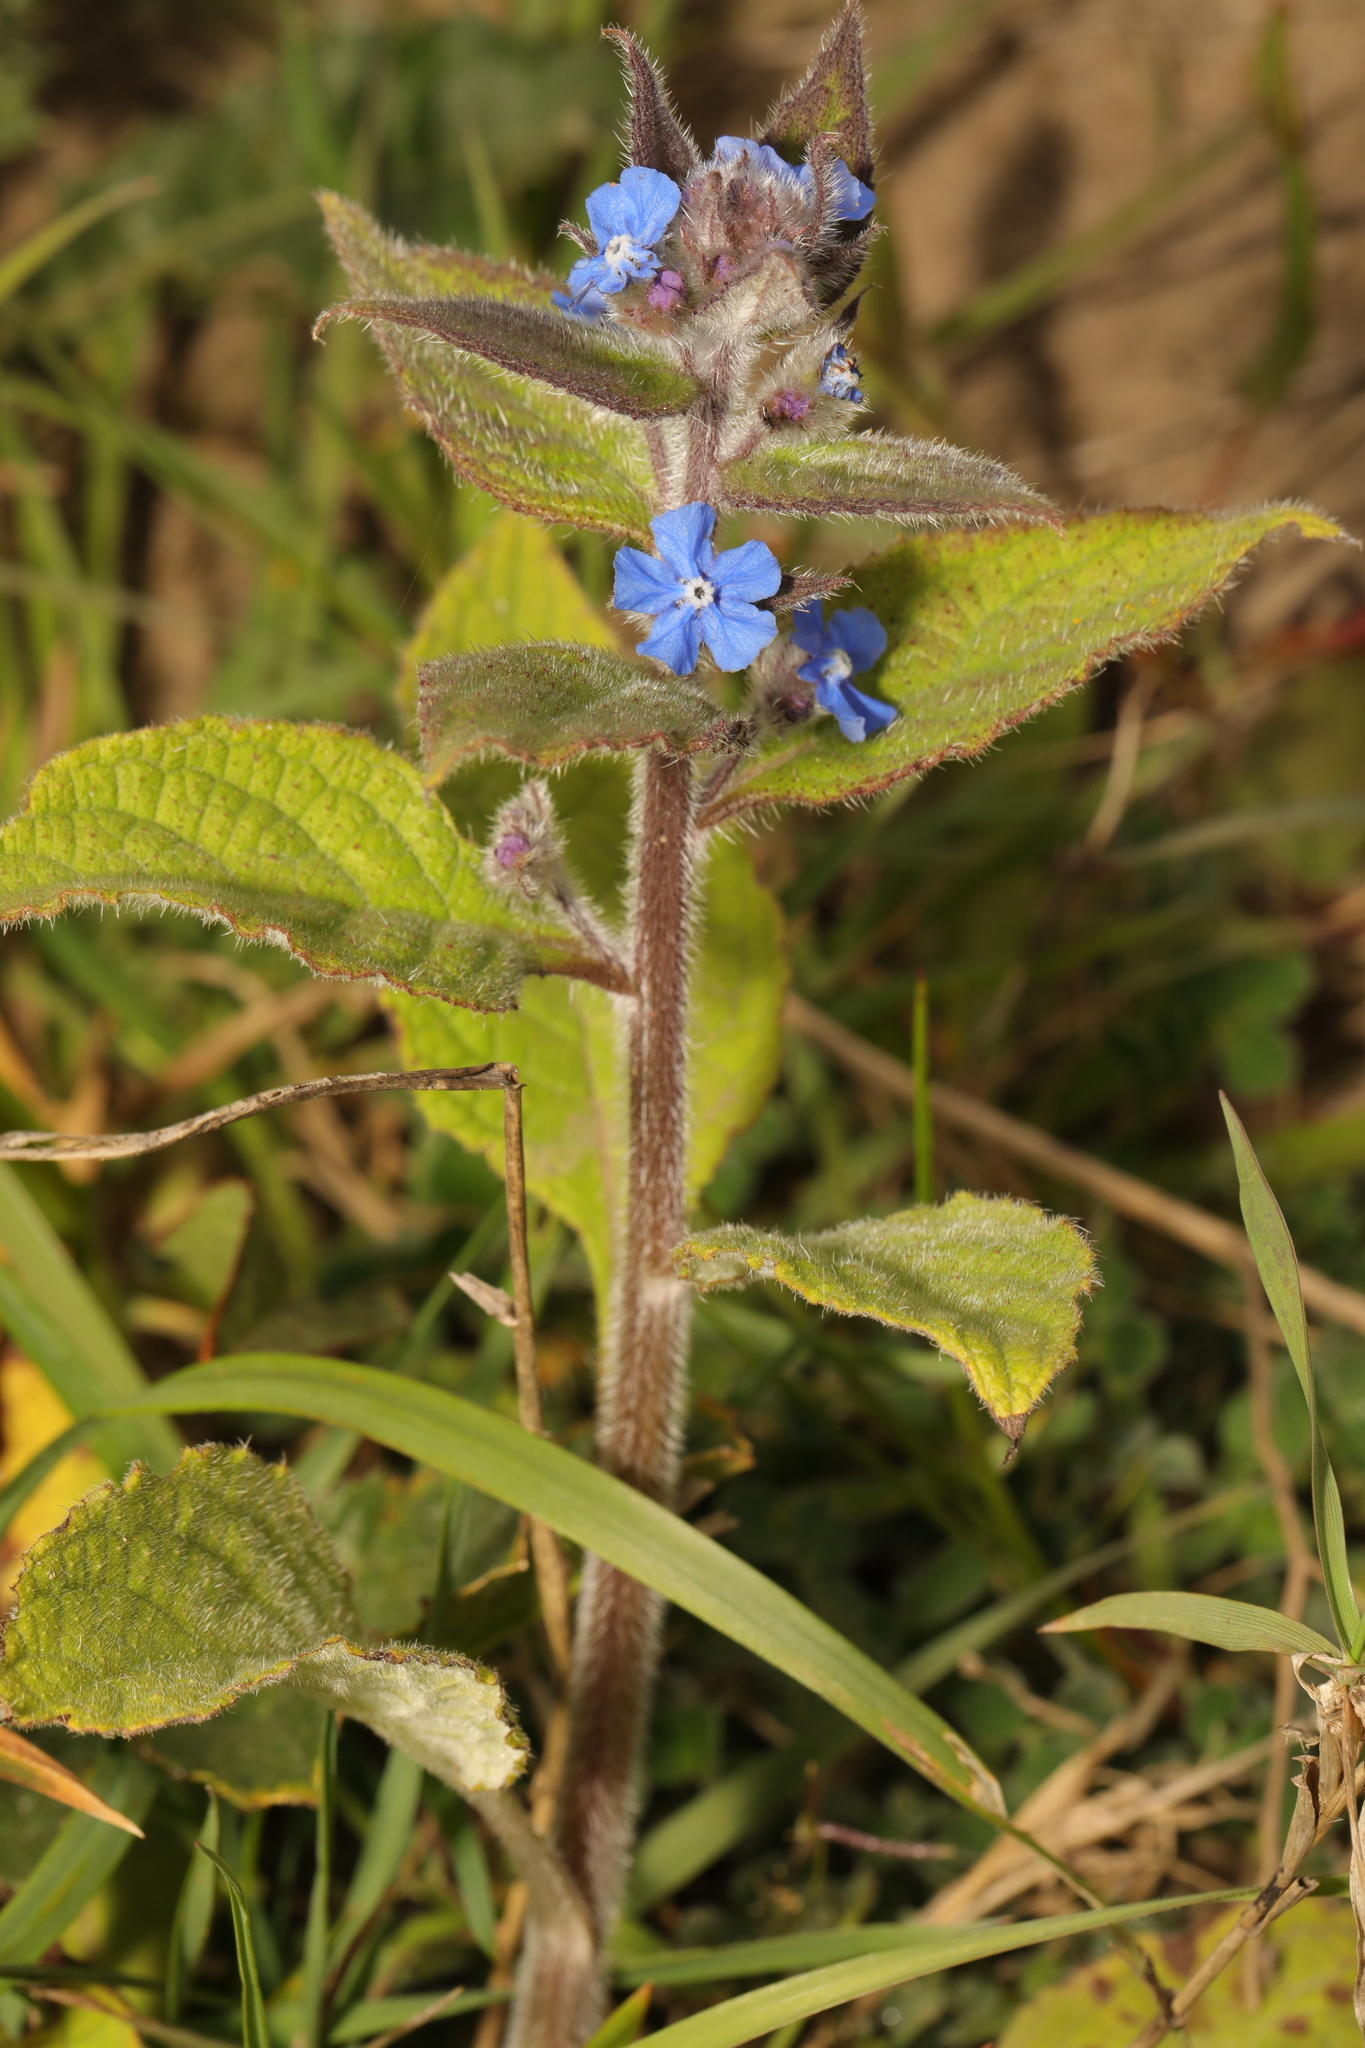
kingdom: Plantae
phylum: Tracheophyta
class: Magnoliopsida
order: Boraginales
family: Boraginaceae
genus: Pentaglottis
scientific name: Pentaglottis sempervirens
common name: Green alkanet
